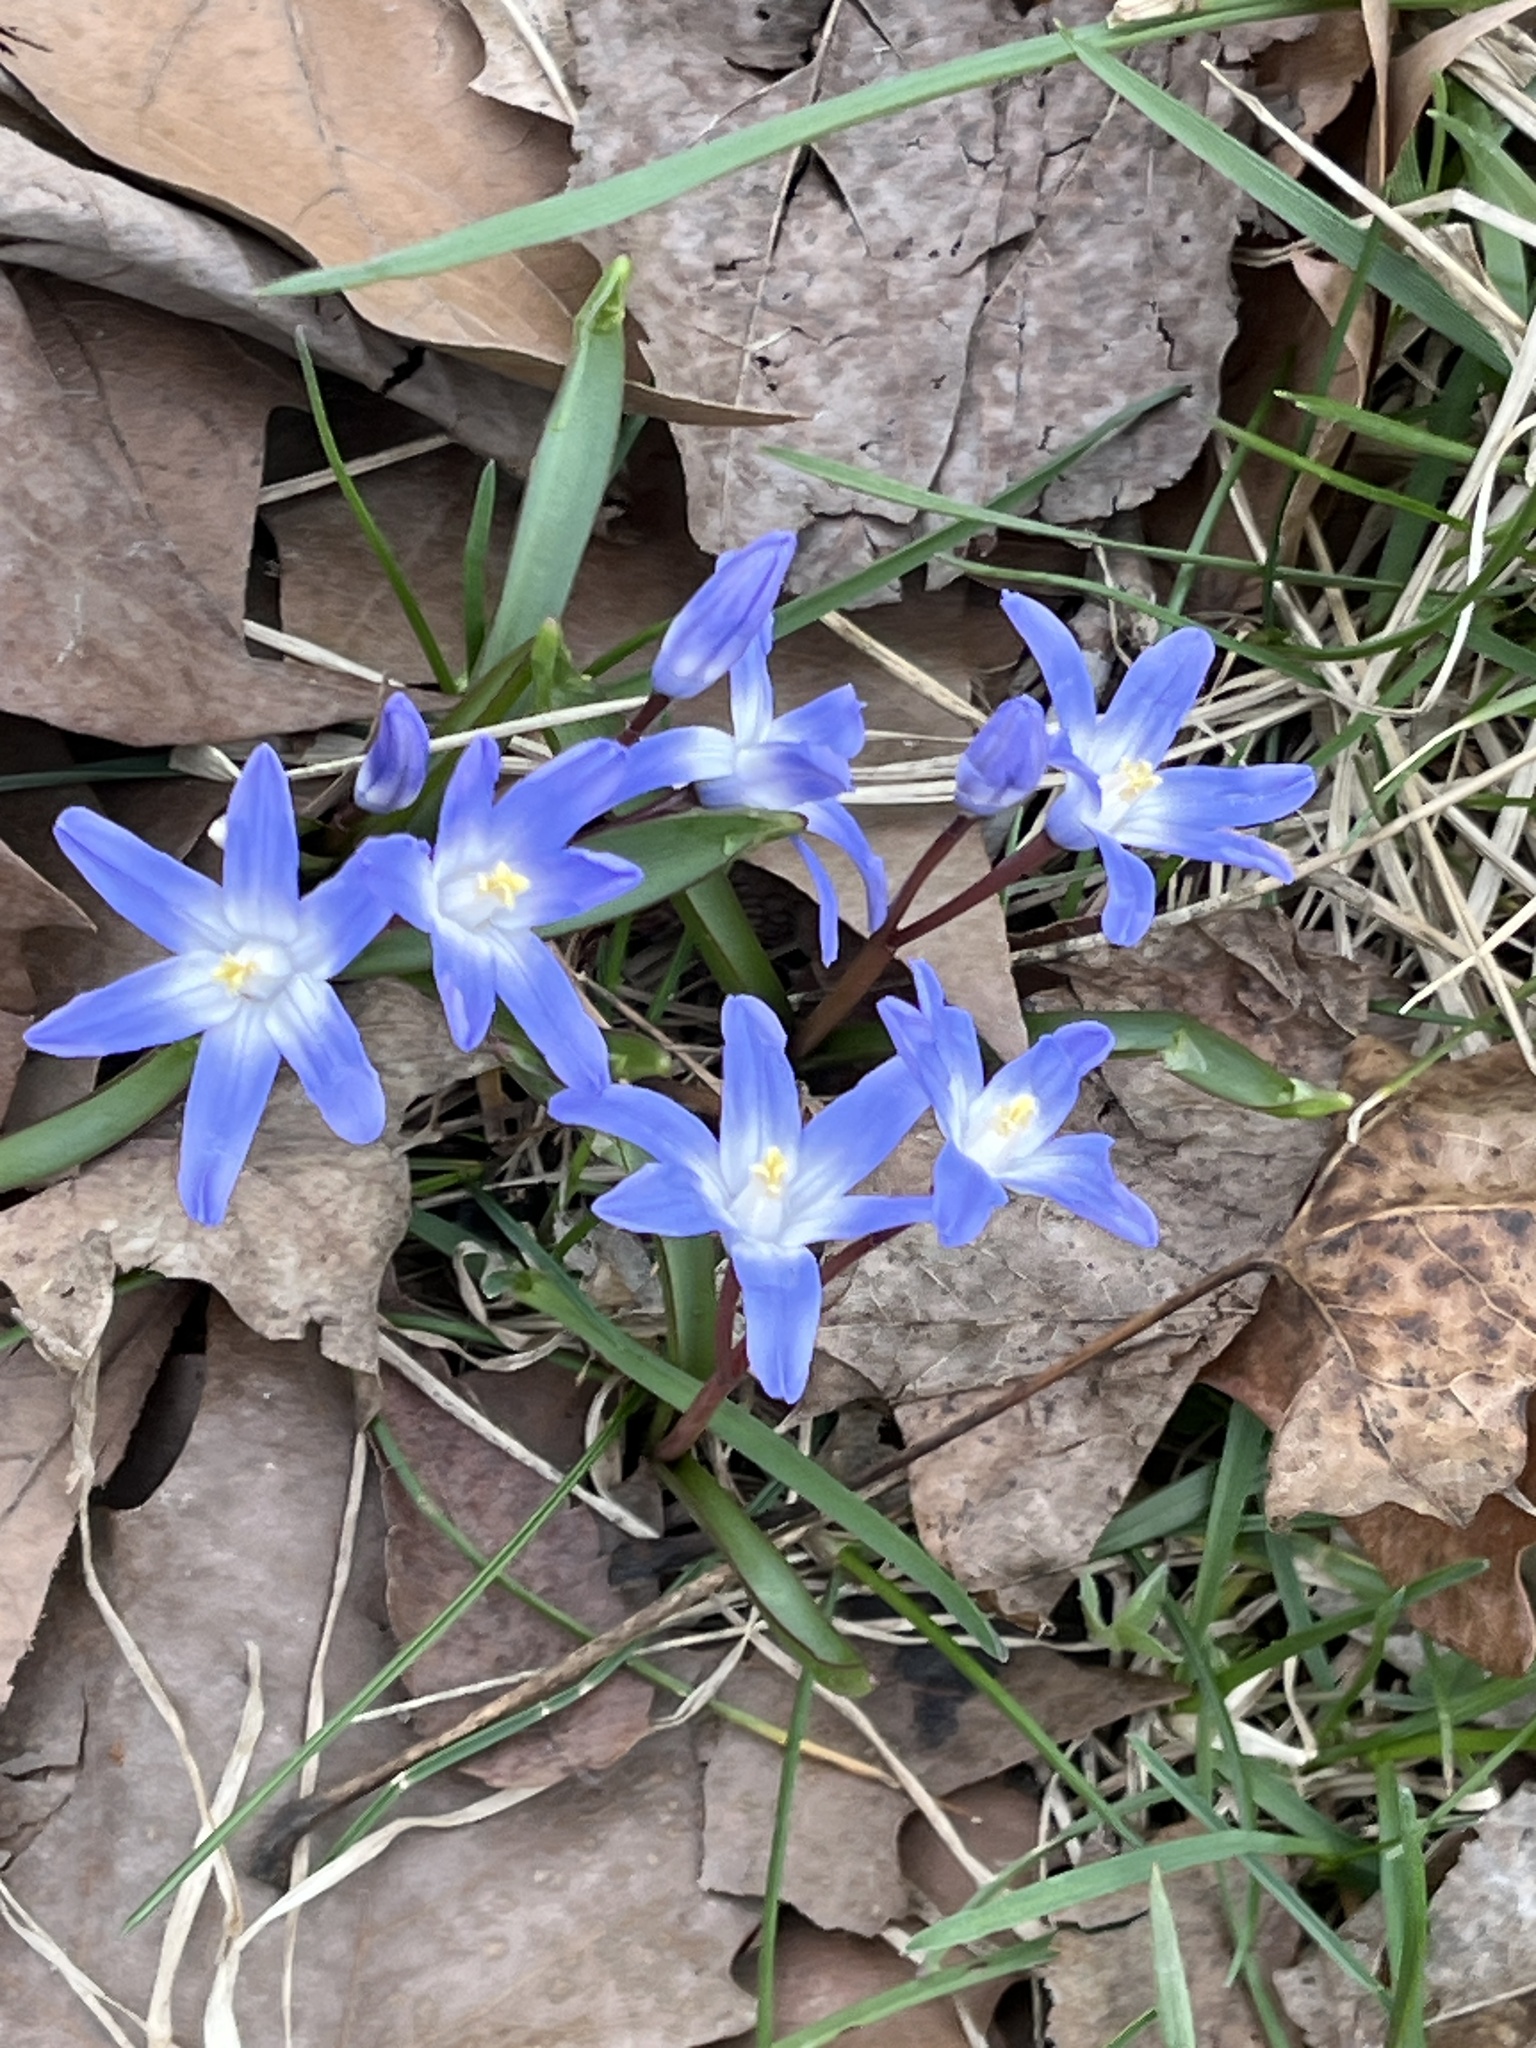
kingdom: Plantae
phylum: Tracheophyta
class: Liliopsida
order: Asparagales
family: Asparagaceae
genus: Scilla
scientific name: Scilla forbesii
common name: Glory-of-the-snow
